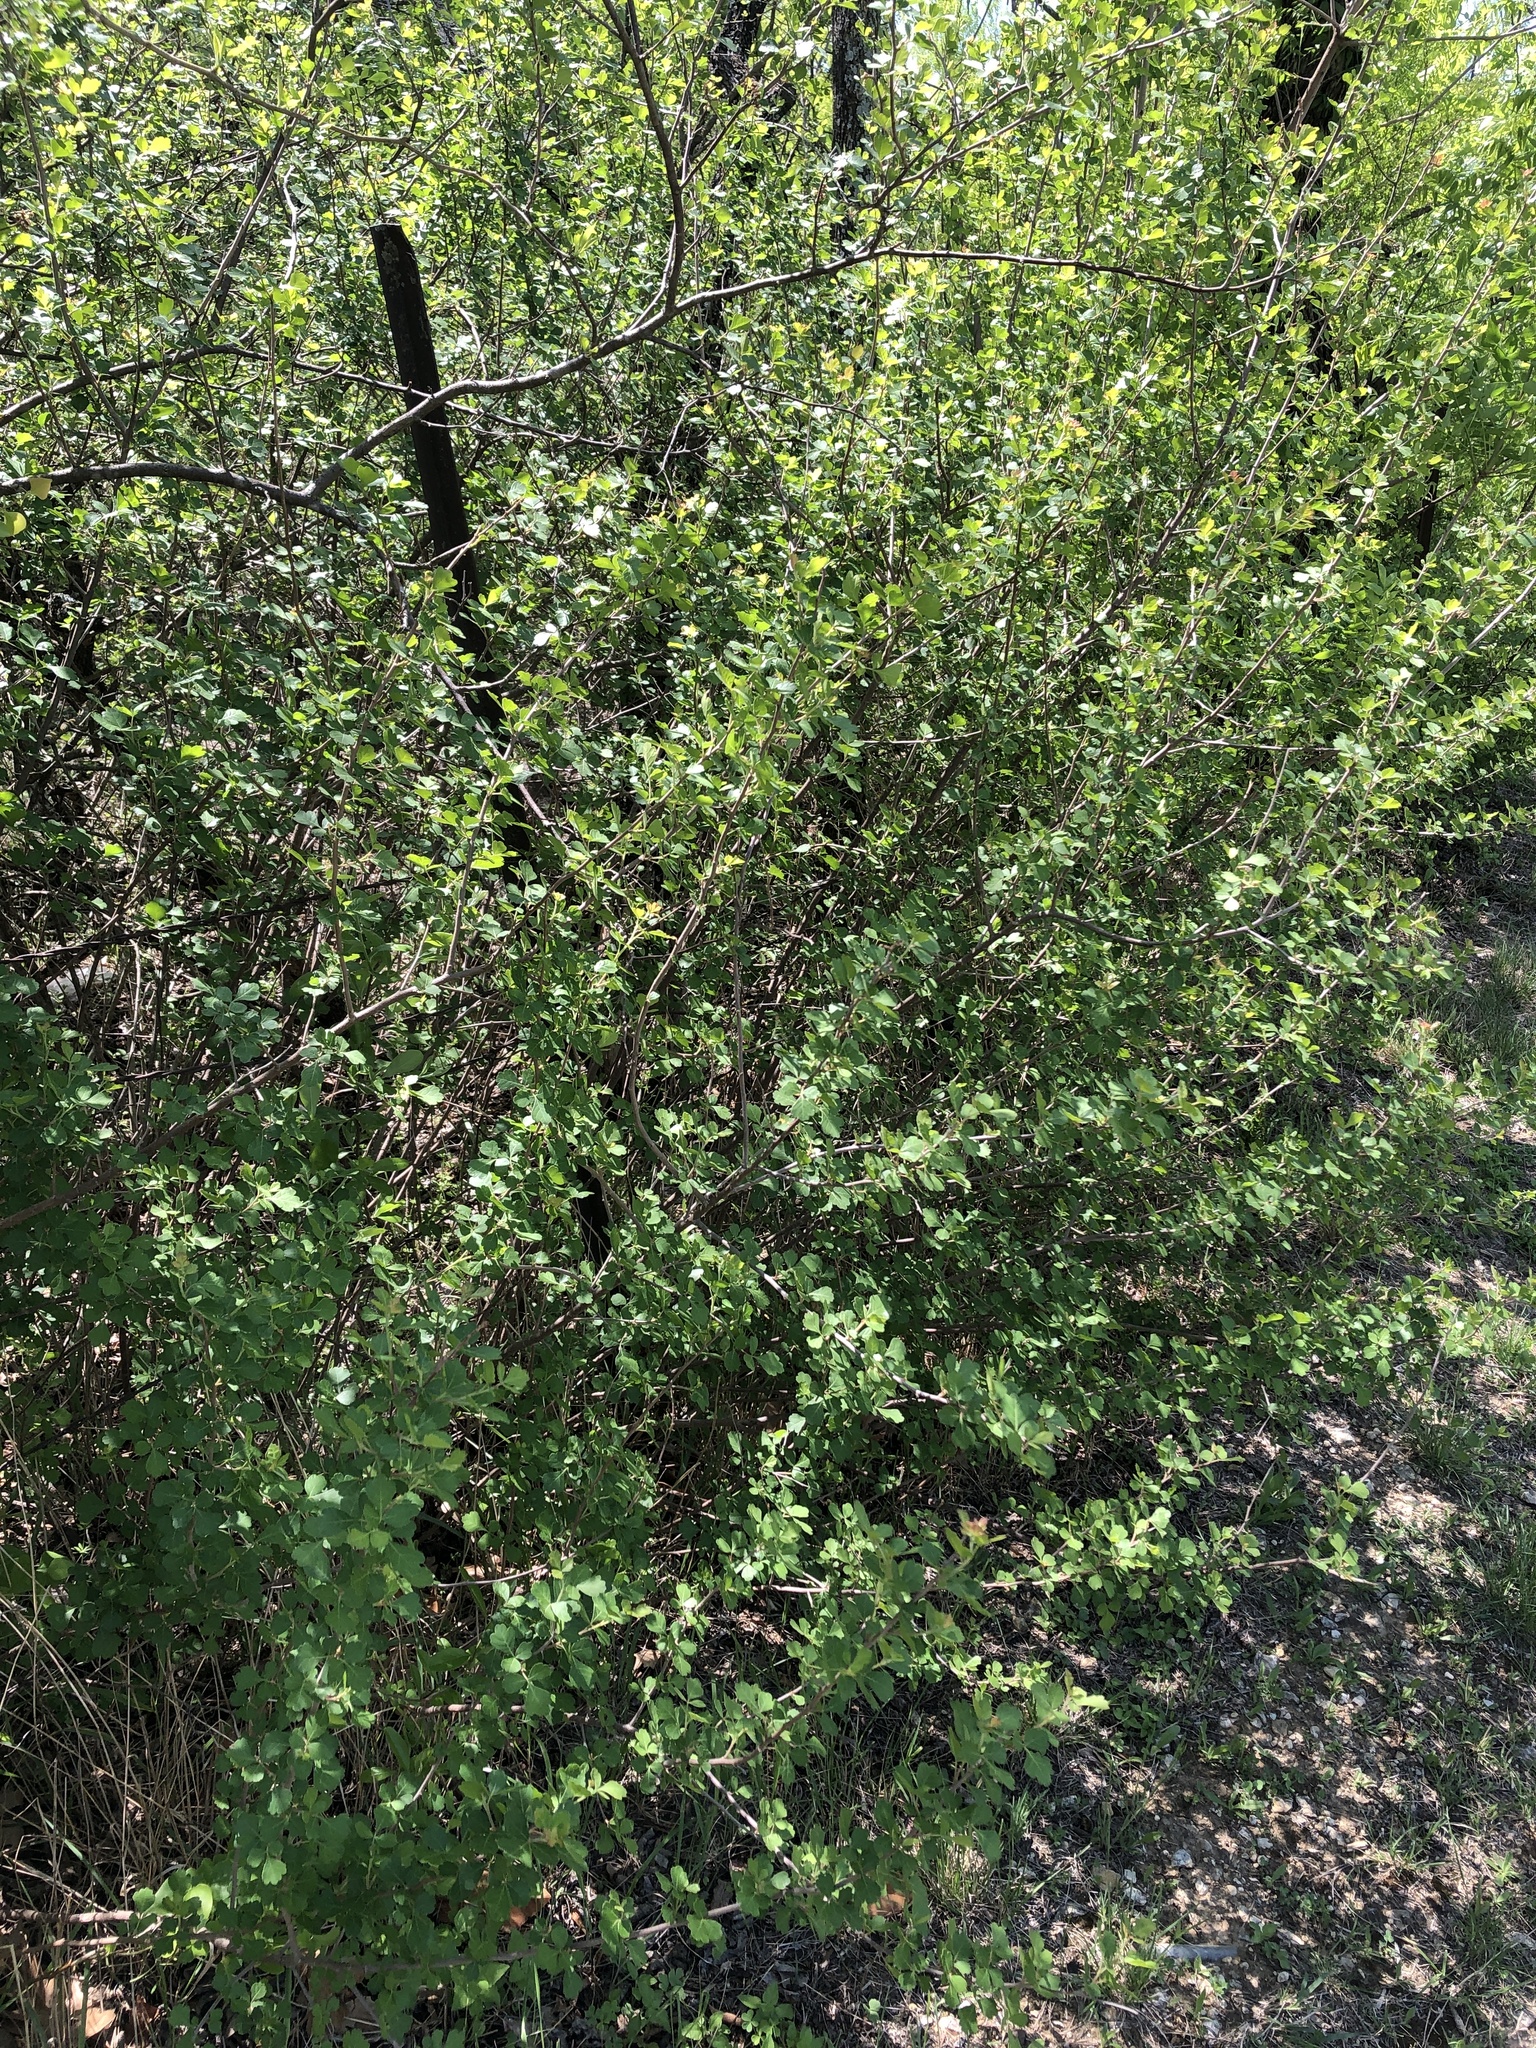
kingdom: Plantae
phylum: Tracheophyta
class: Magnoliopsida
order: Sapindales
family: Anacardiaceae
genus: Rhus
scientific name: Rhus aromatica
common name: Aromatic sumac
